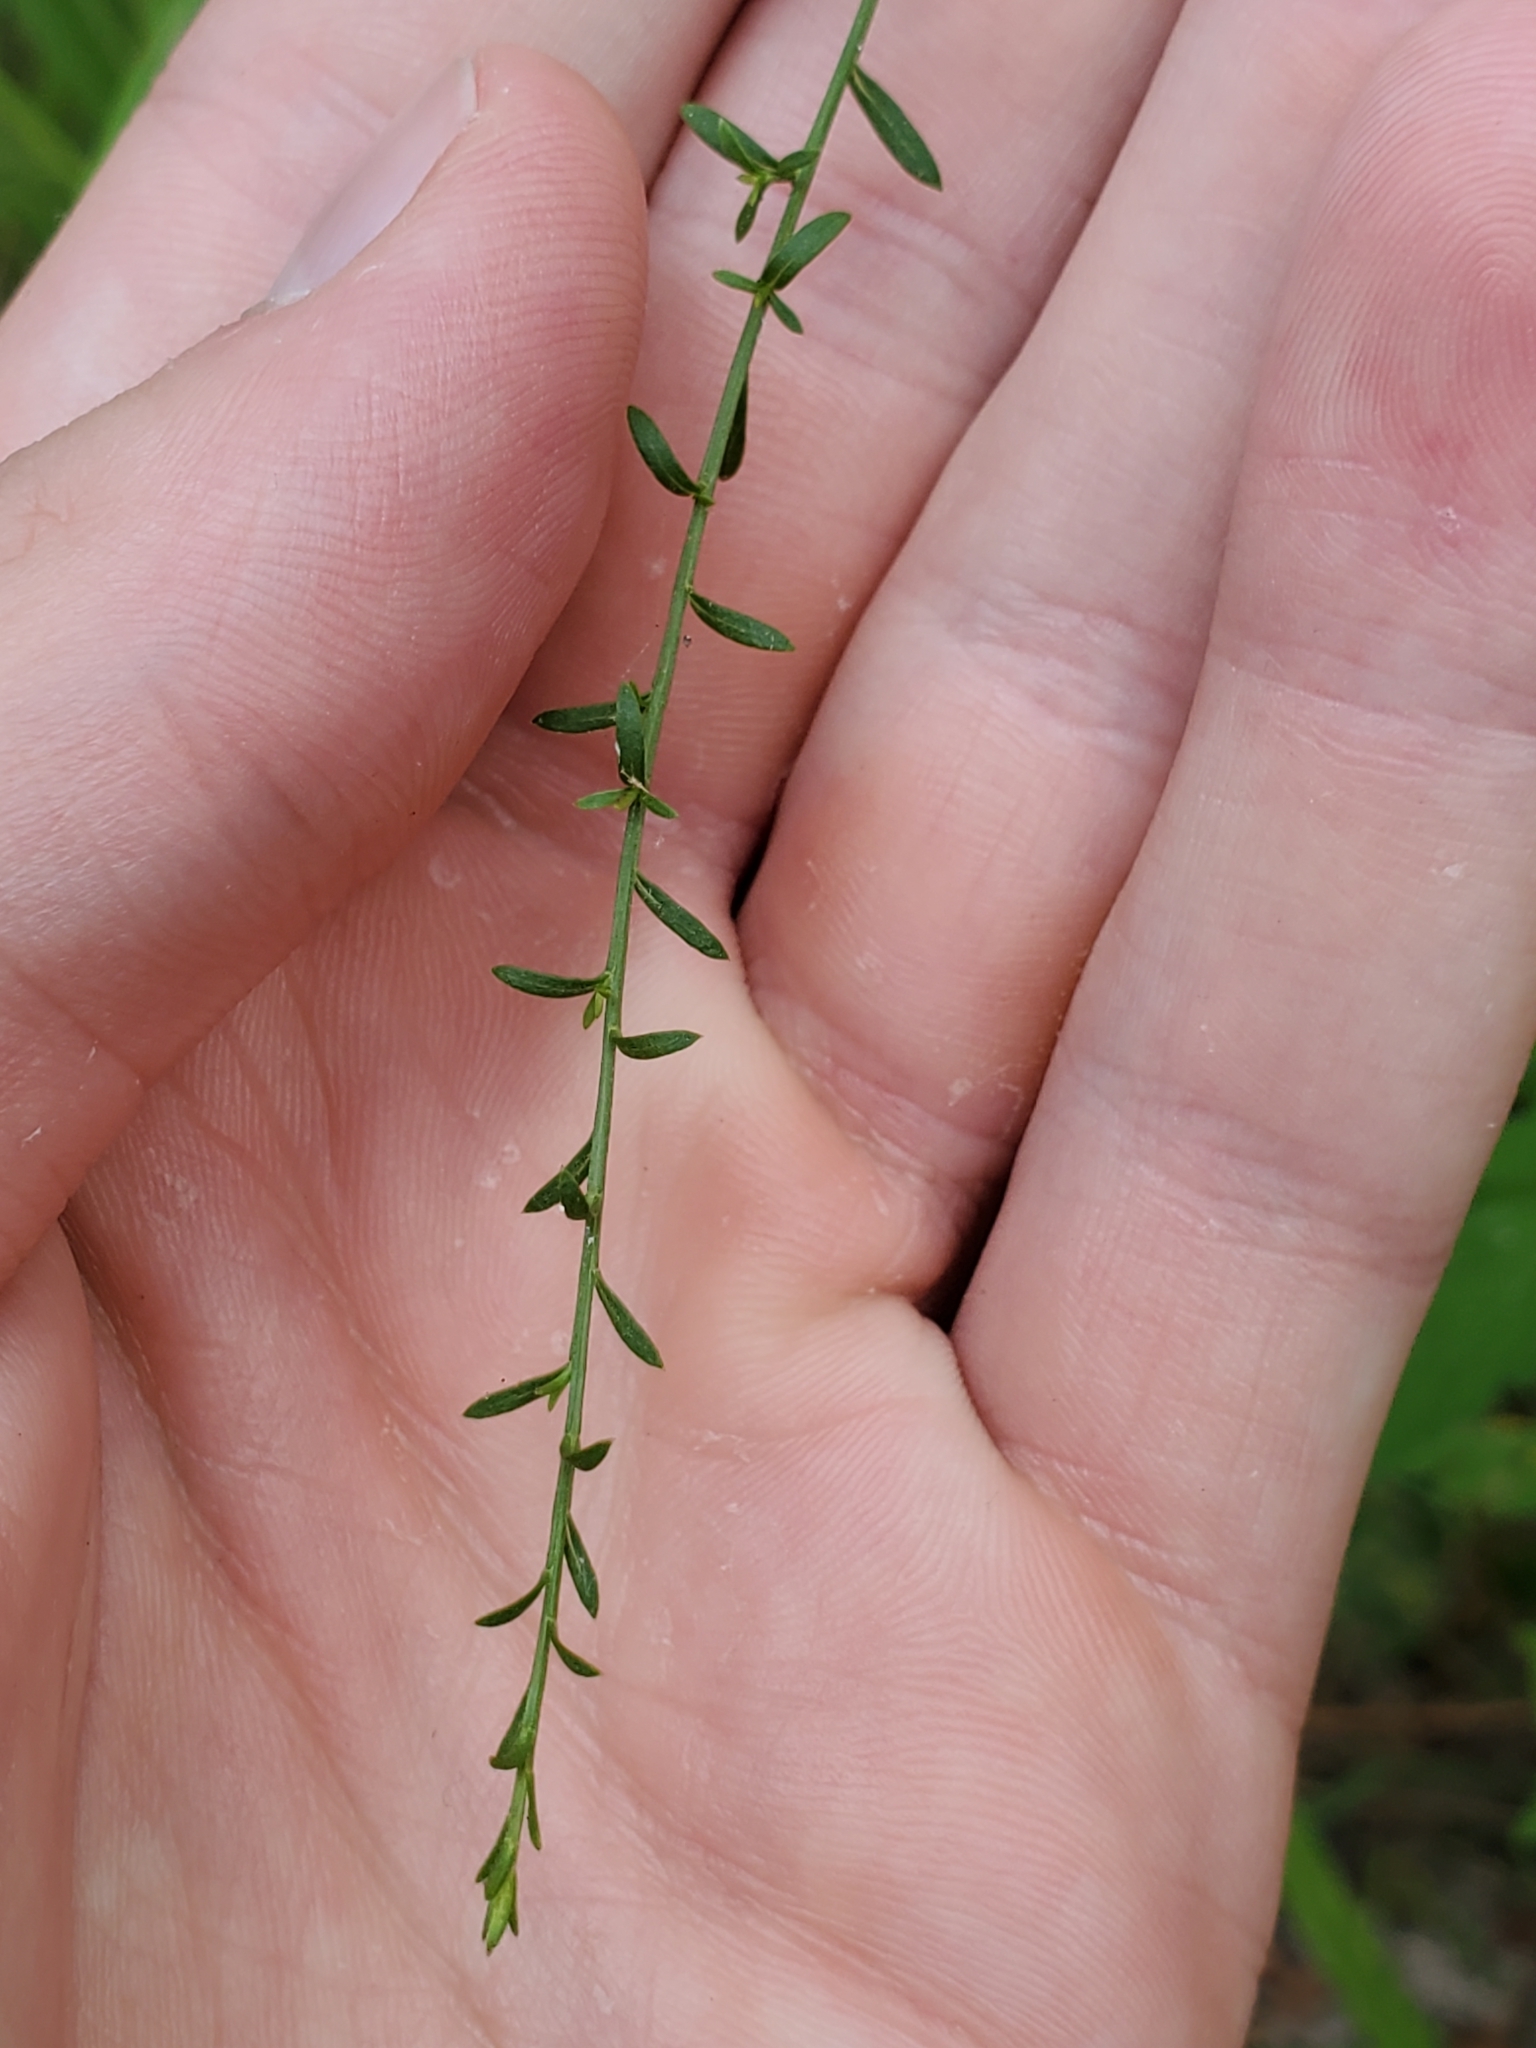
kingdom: Plantae
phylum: Tracheophyta
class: Magnoliopsida
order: Fabales
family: Fabaceae
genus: Centrosema
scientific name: Centrosema virginianum
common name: Butterfly-pea
